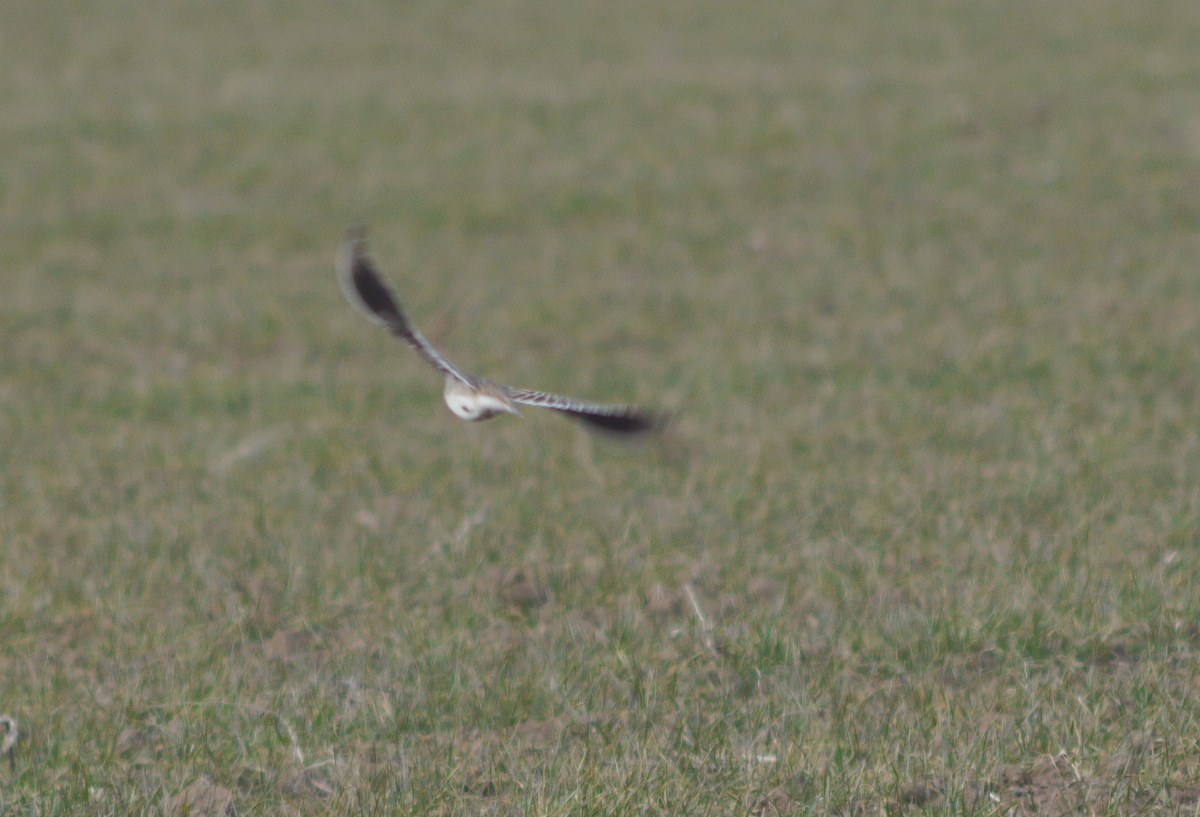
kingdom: Animalia
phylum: Chordata
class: Aves
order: Passeriformes
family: Alaudidae
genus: Melanocorypha
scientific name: Melanocorypha calandra
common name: Calandra lark
